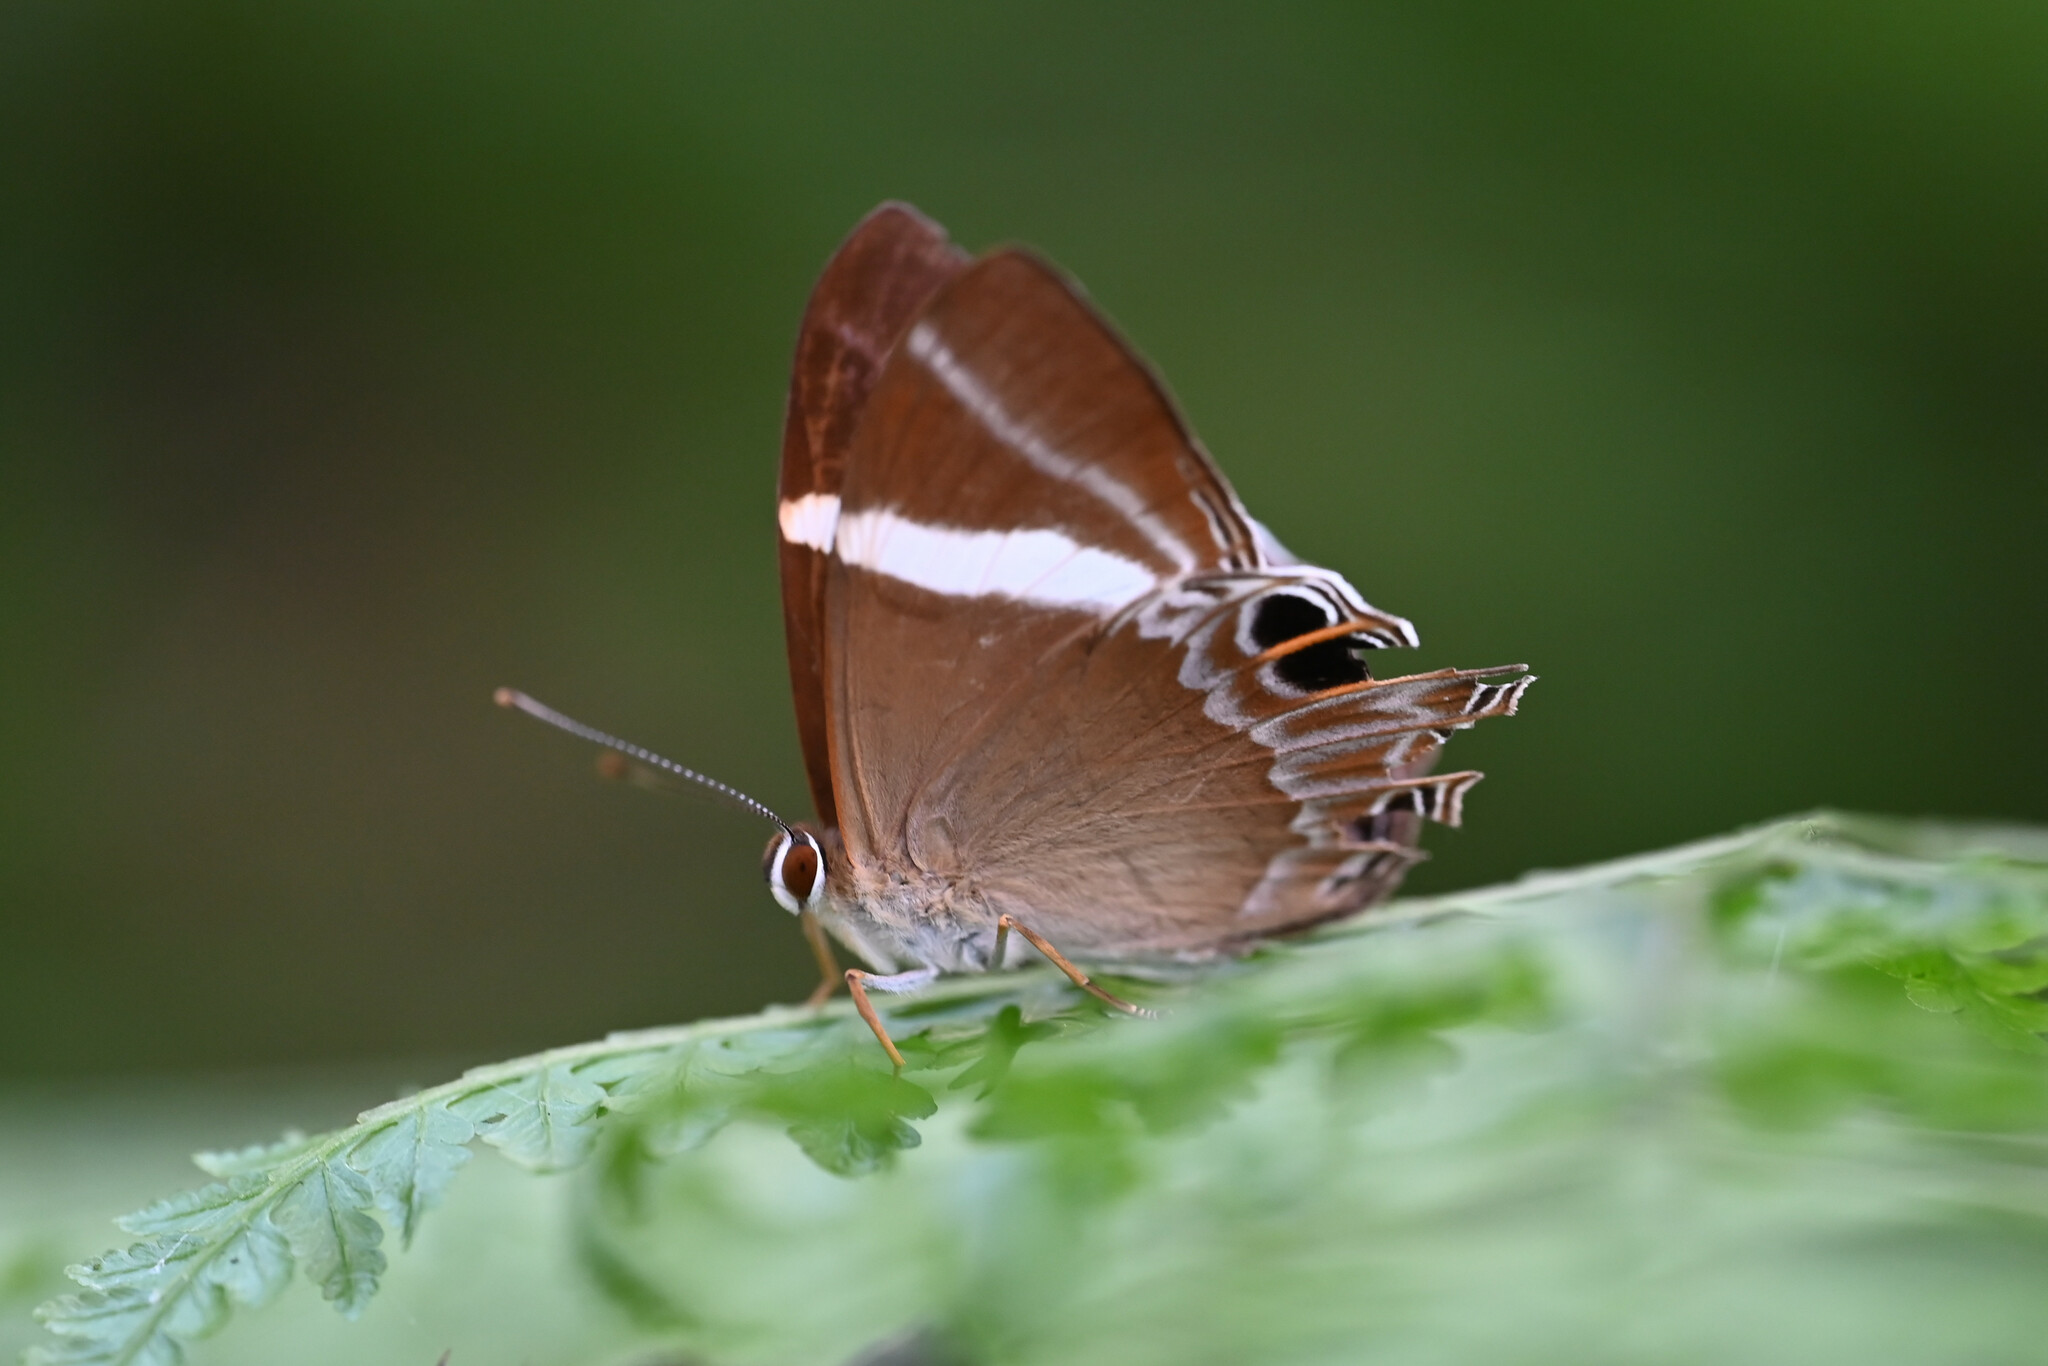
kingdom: Animalia
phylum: Arthropoda
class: Insecta
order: Lepidoptera
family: Lycaenidae
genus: Abisara
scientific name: Abisara neophron
